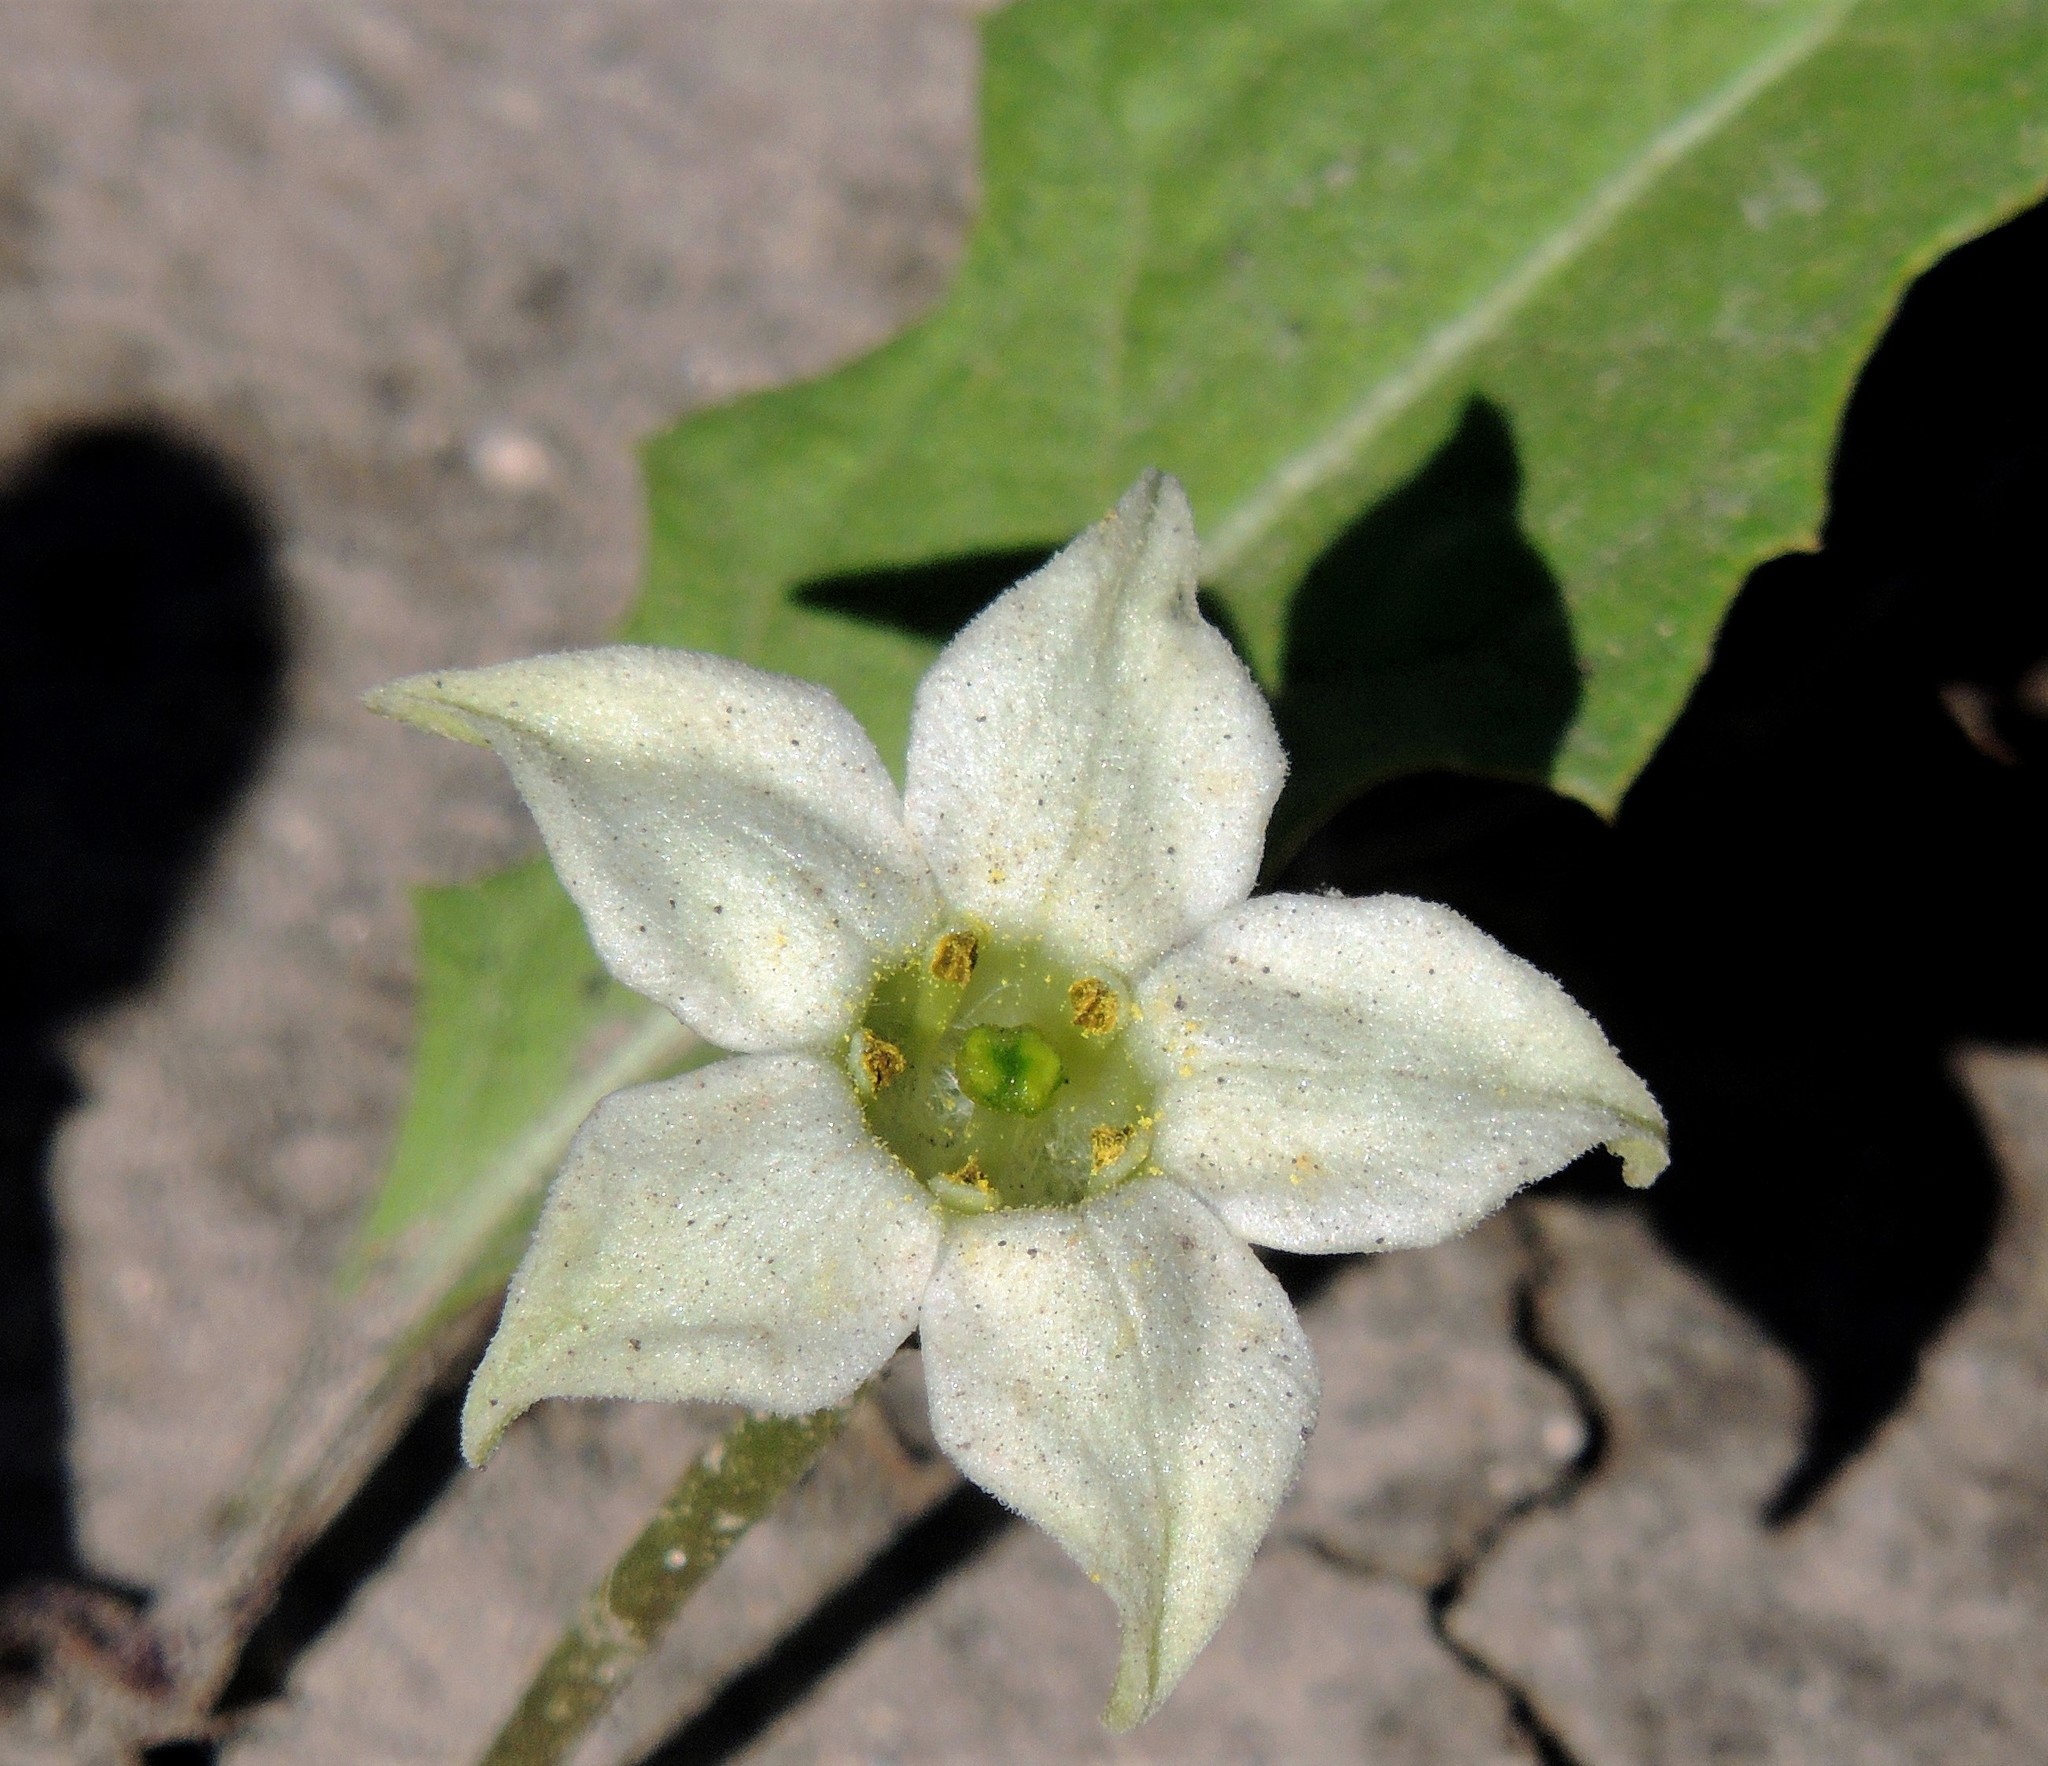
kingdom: Plantae
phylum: Tracheophyta
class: Magnoliopsida
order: Solanales
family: Solanaceae
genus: Jaborosa
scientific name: Jaborosa runcinata
